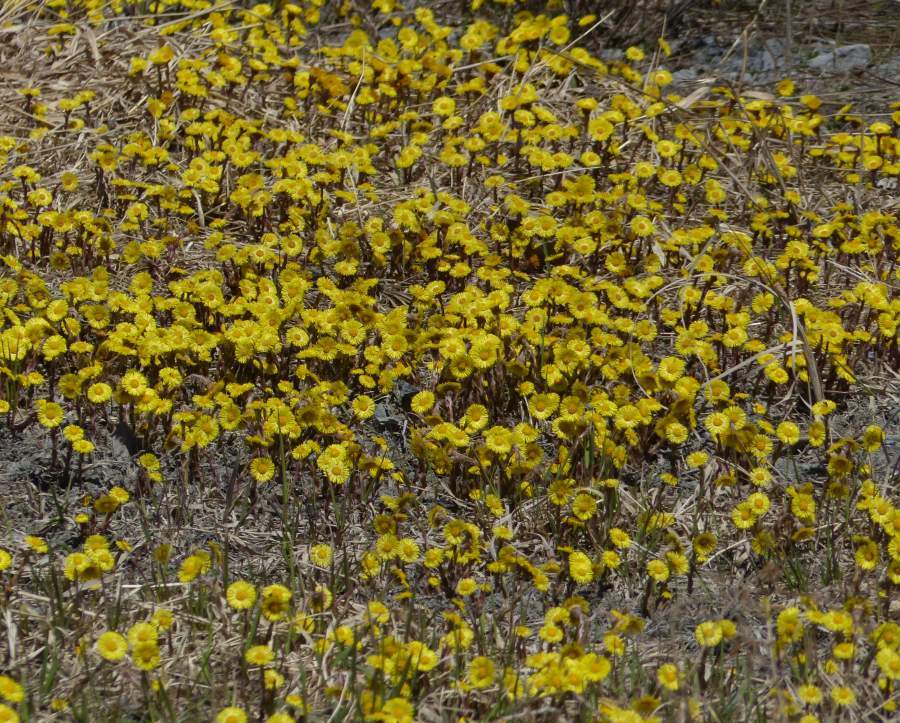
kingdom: Plantae
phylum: Tracheophyta
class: Magnoliopsida
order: Asterales
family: Asteraceae
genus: Tussilago
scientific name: Tussilago farfara
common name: Coltsfoot
